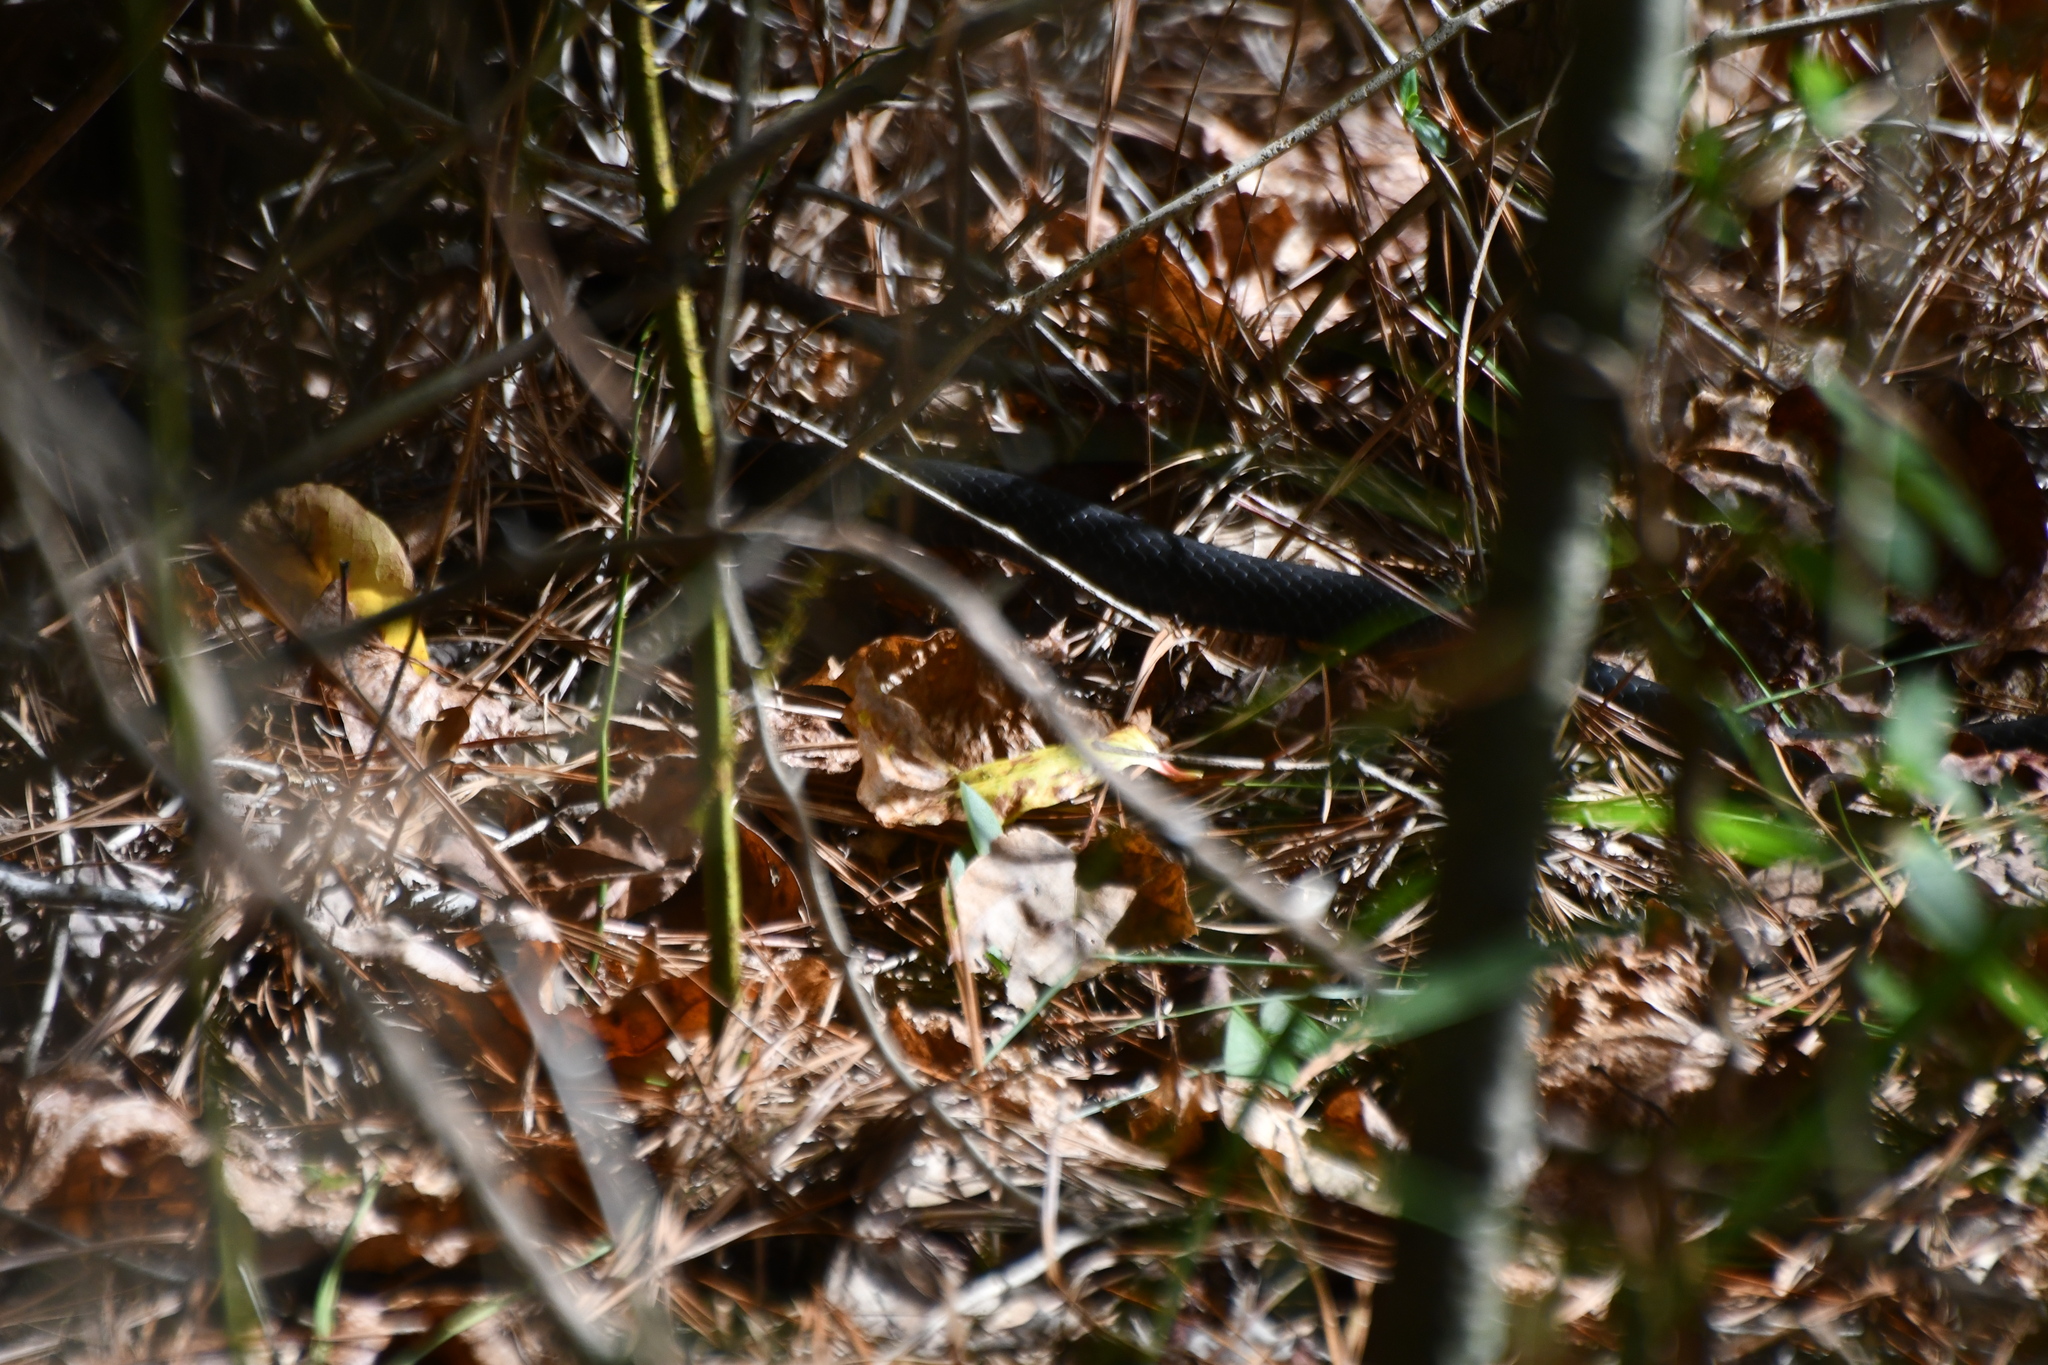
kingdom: Animalia
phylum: Chordata
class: Squamata
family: Colubridae
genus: Coluber
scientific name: Coluber constrictor
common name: Eastern racer
